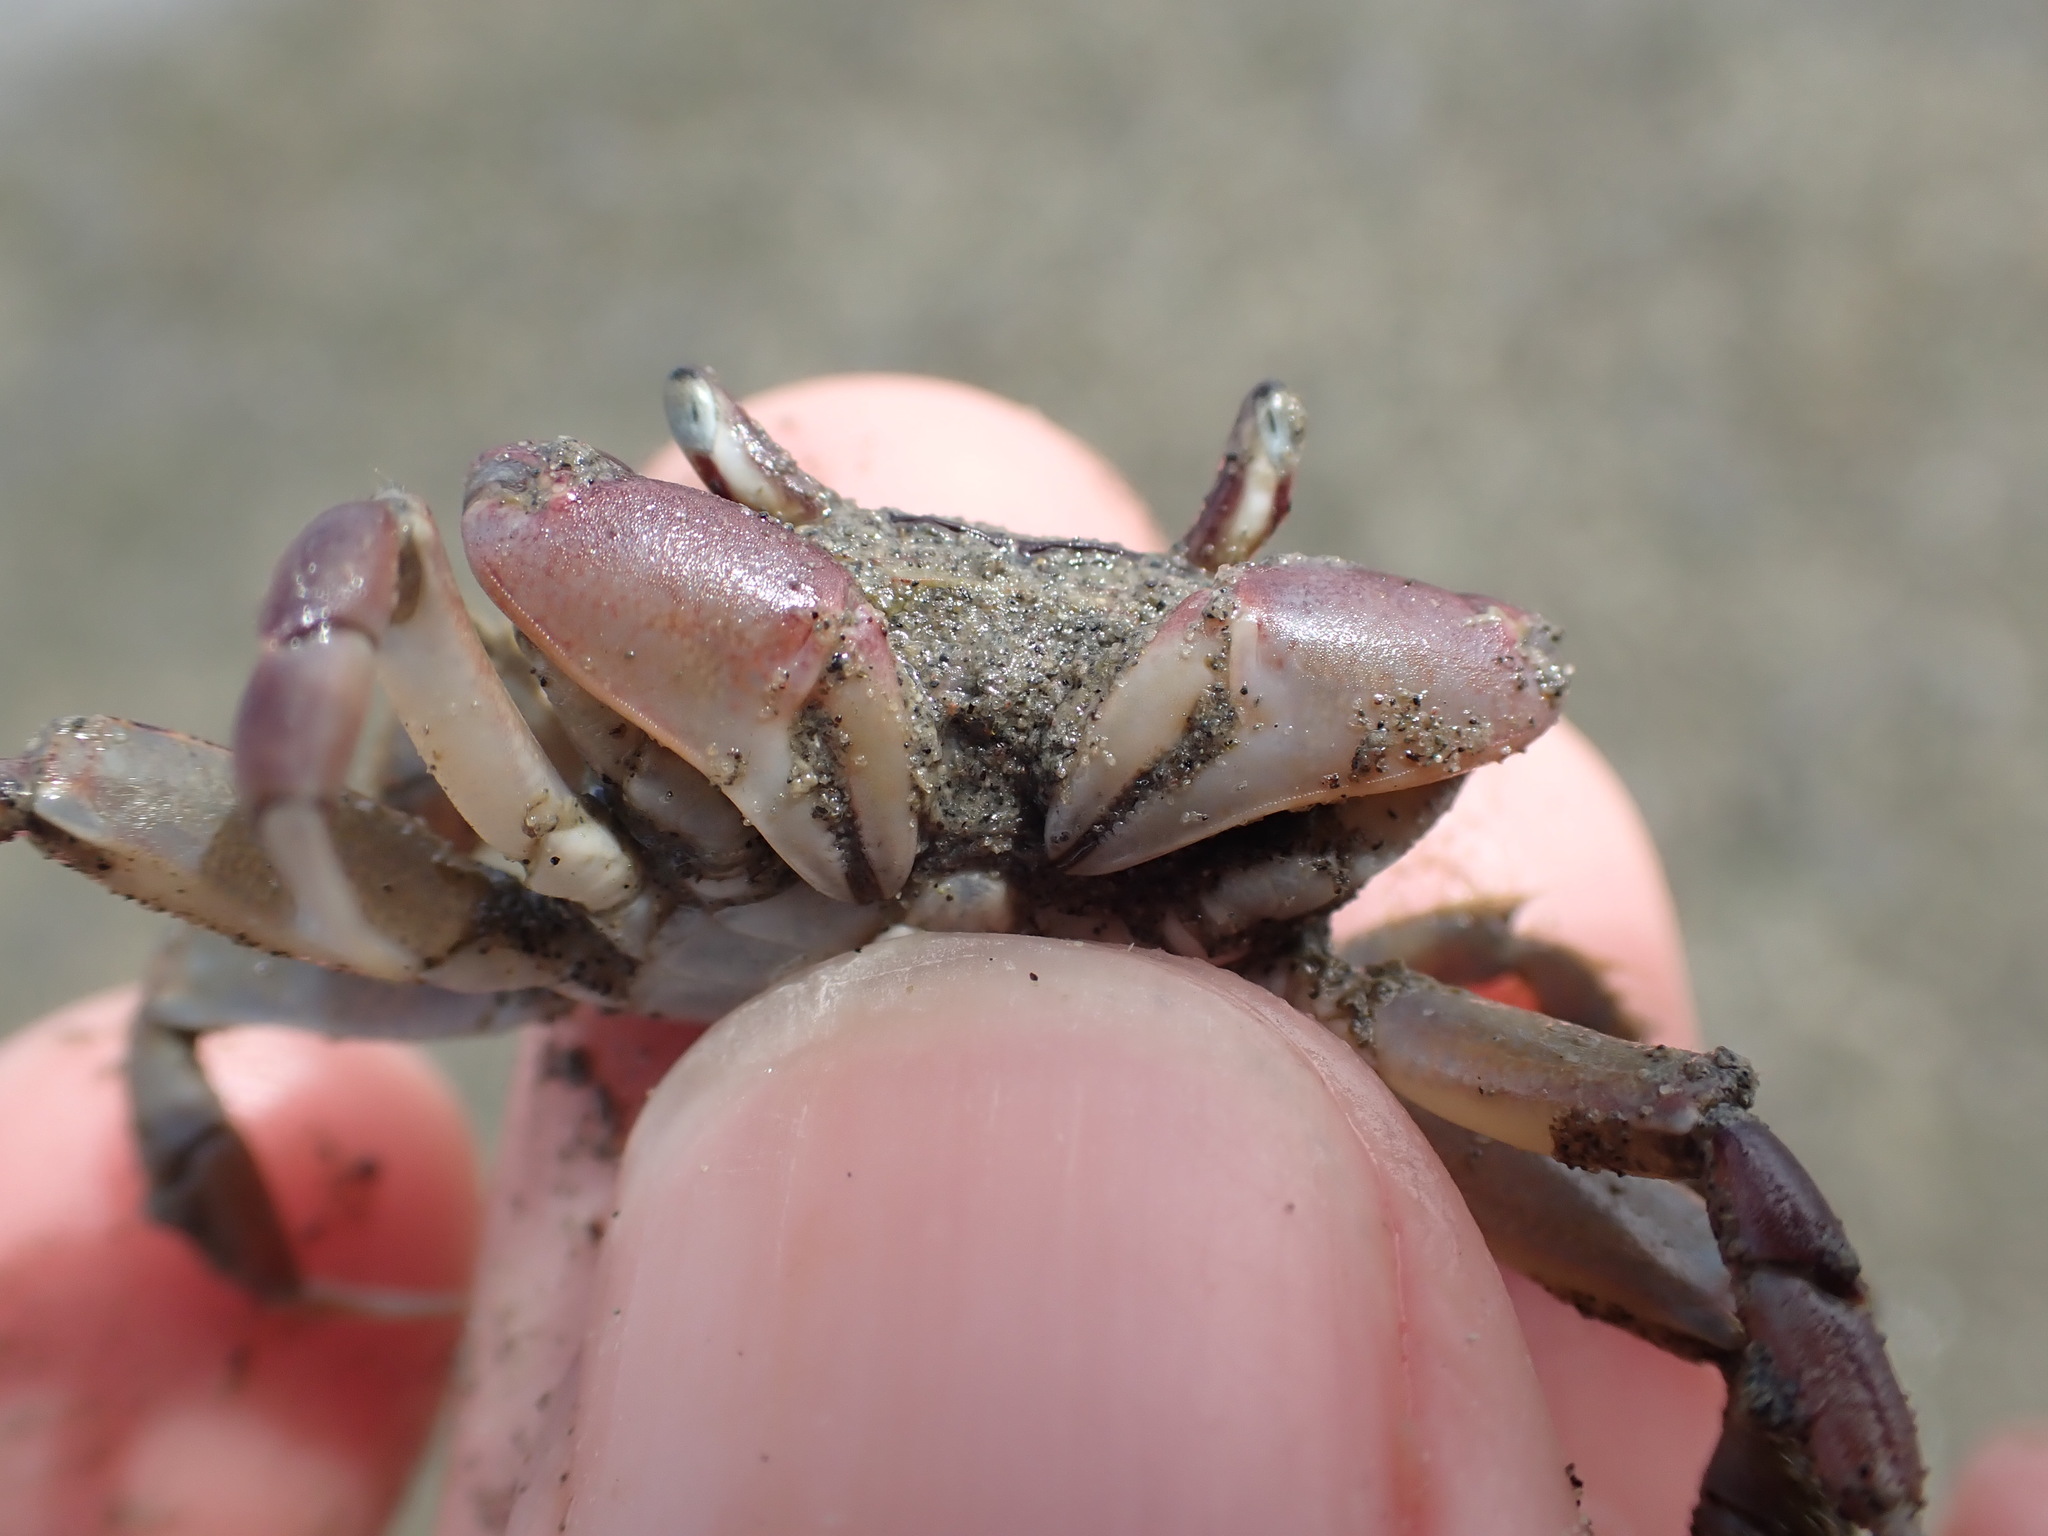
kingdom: Animalia
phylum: Arthropoda
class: Malacostraca
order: Decapoda
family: Macrophthalmidae
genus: Hemiplax
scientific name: Hemiplax hirtipes
